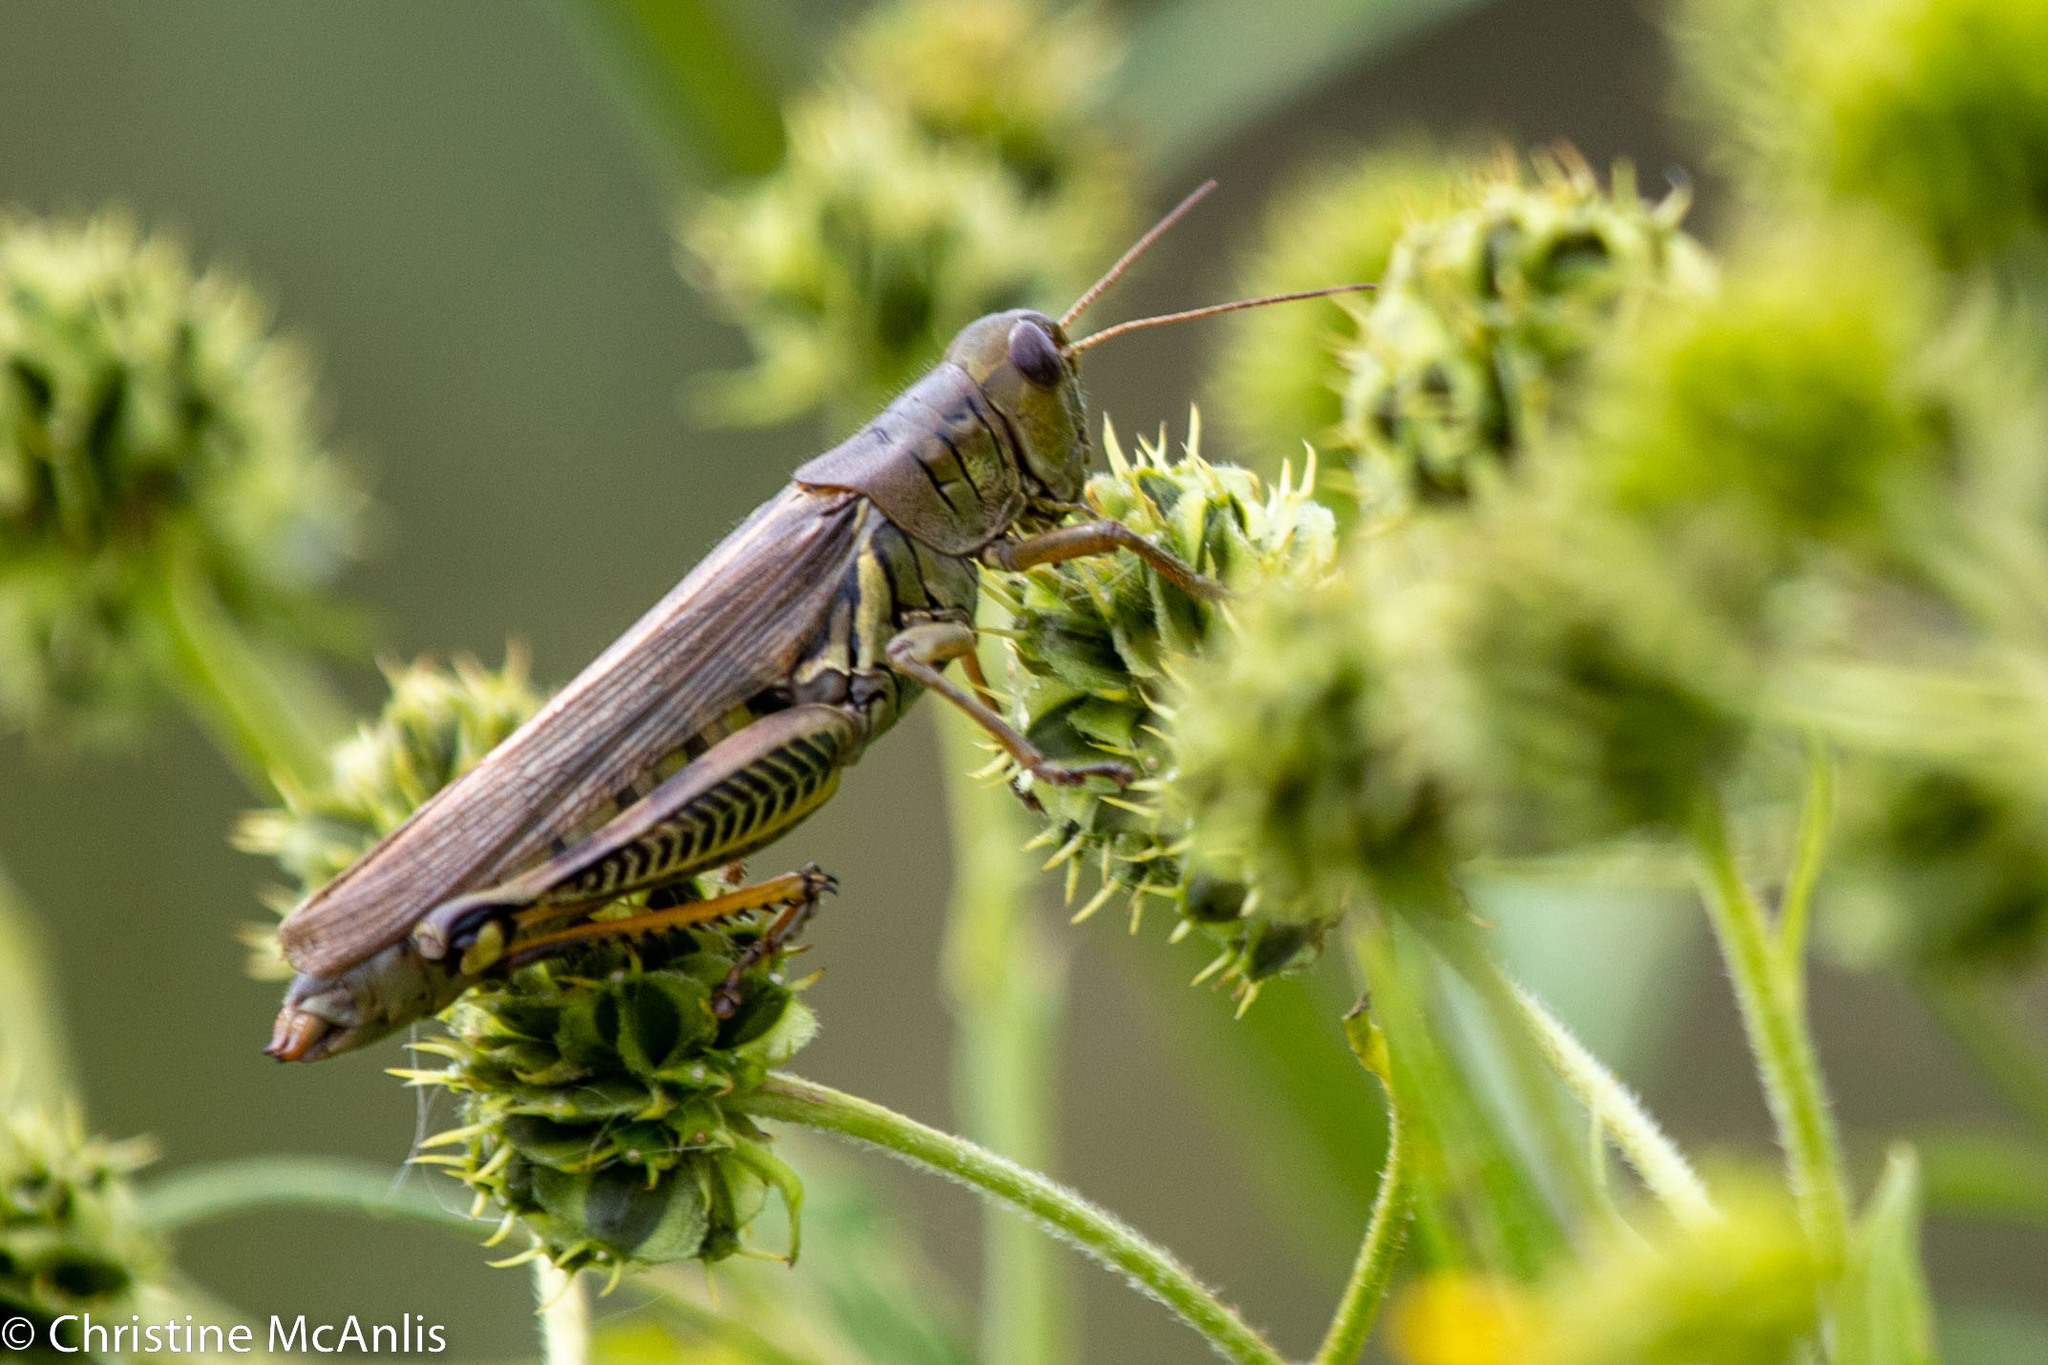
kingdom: Animalia
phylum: Arthropoda
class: Insecta
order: Orthoptera
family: Acrididae
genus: Melanoplus
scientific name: Melanoplus differentialis
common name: Differential grasshopper
